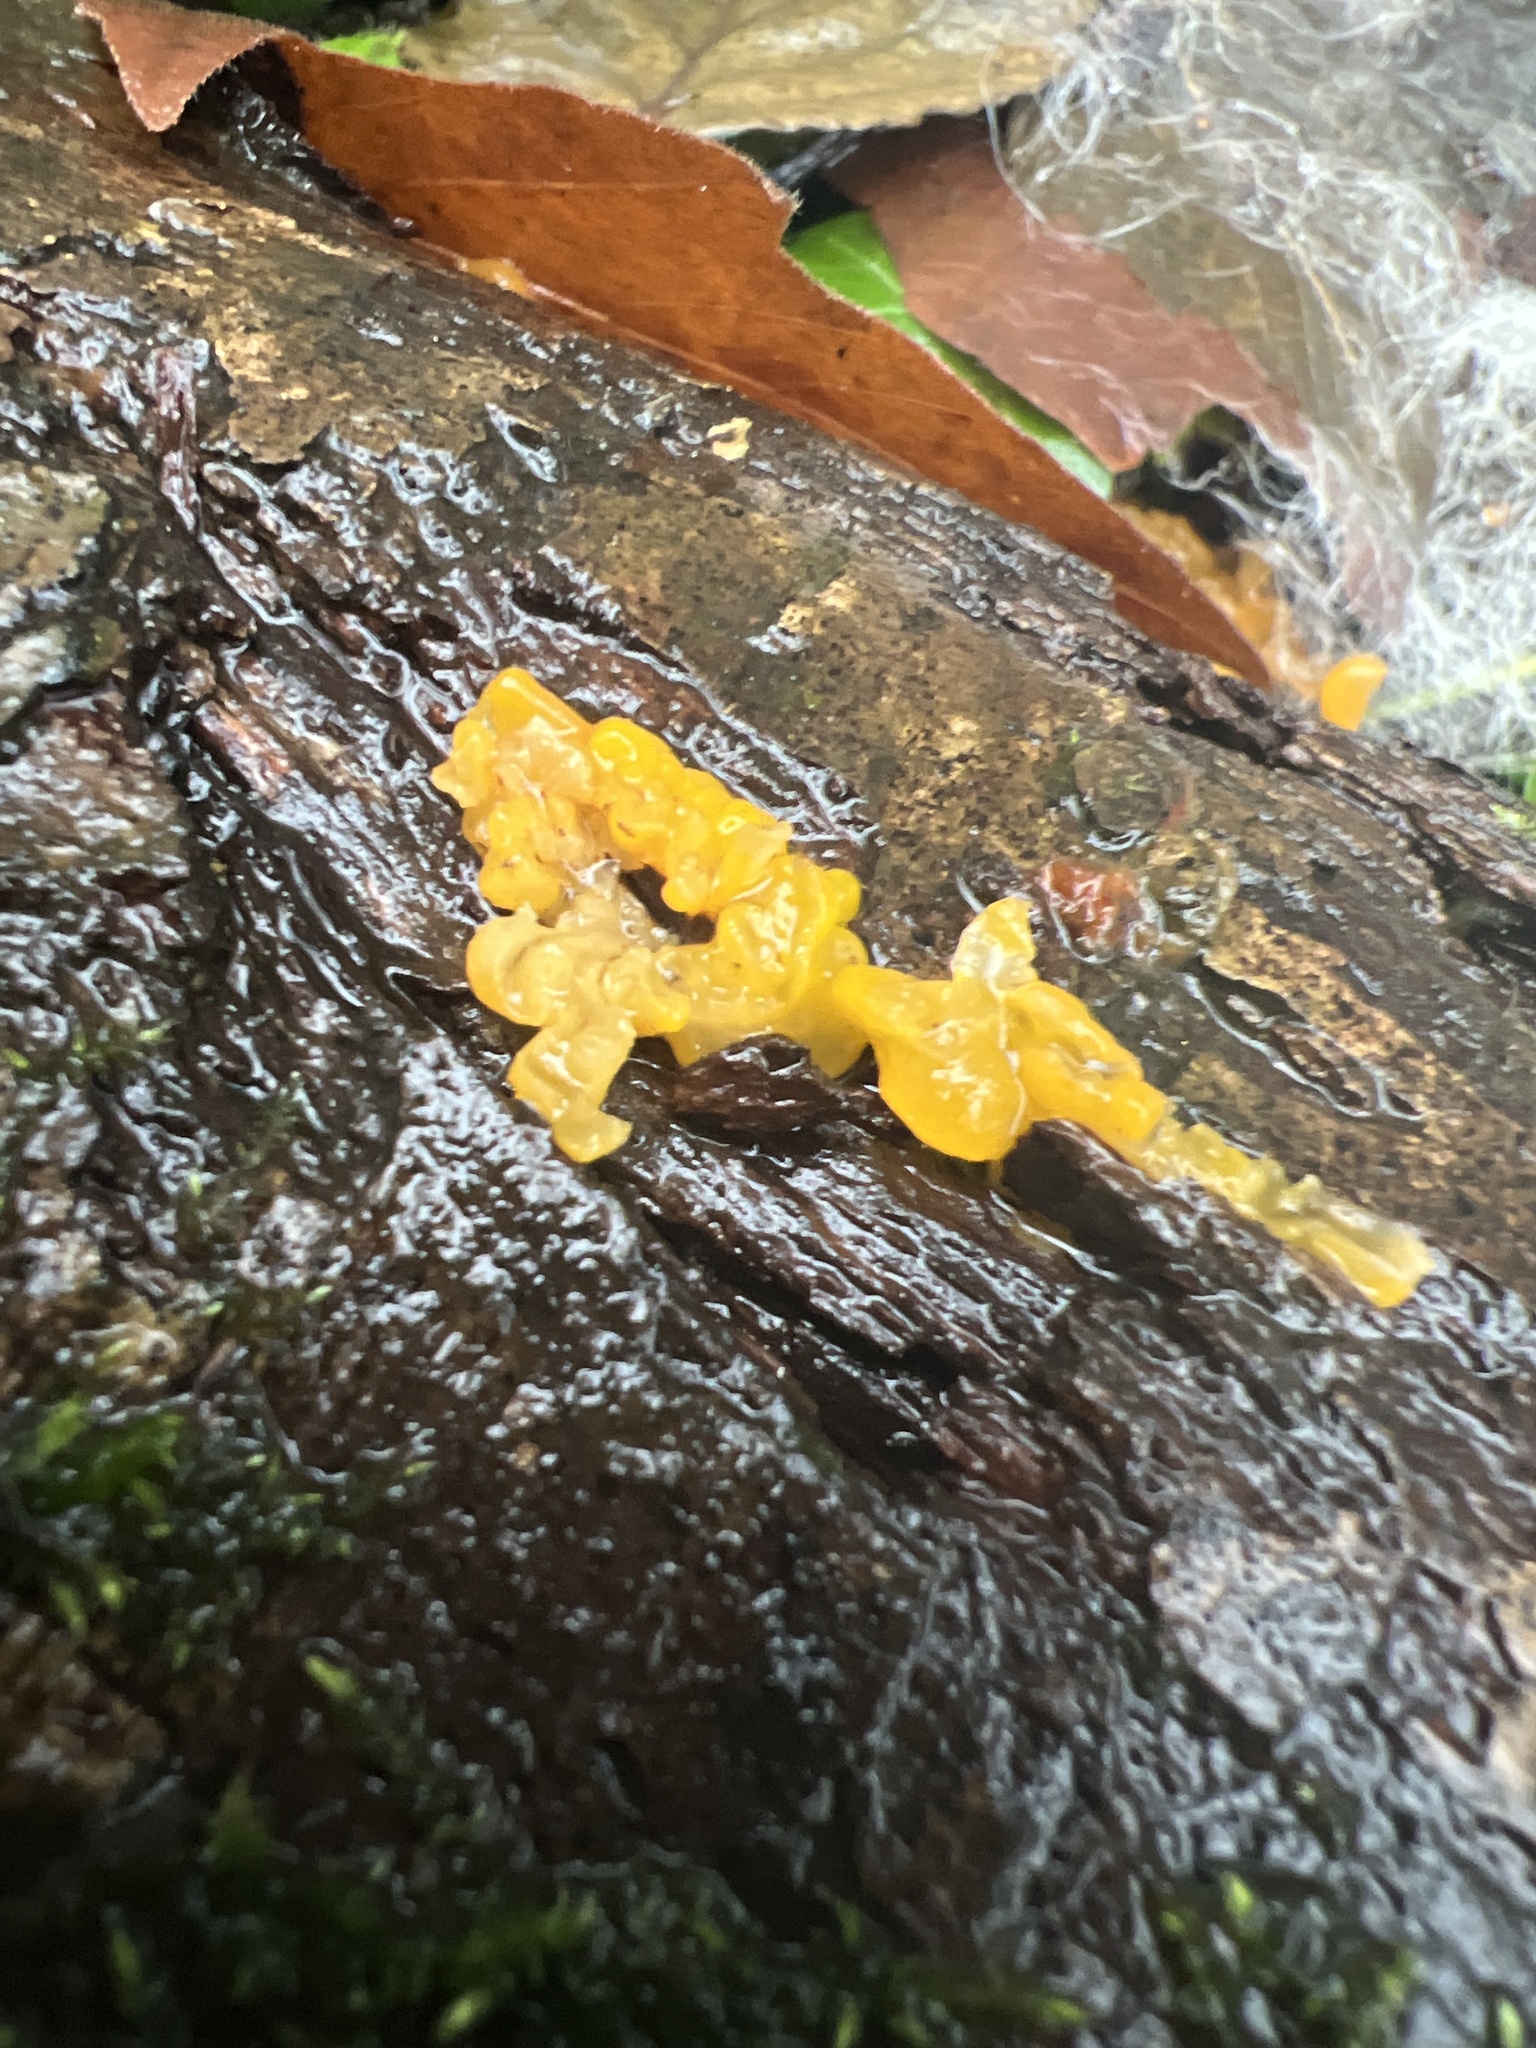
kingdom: Fungi
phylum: Basidiomycota
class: Tremellomycetes
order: Tremellales
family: Tremellaceae
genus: Tremella
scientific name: Tremella mesenterica
